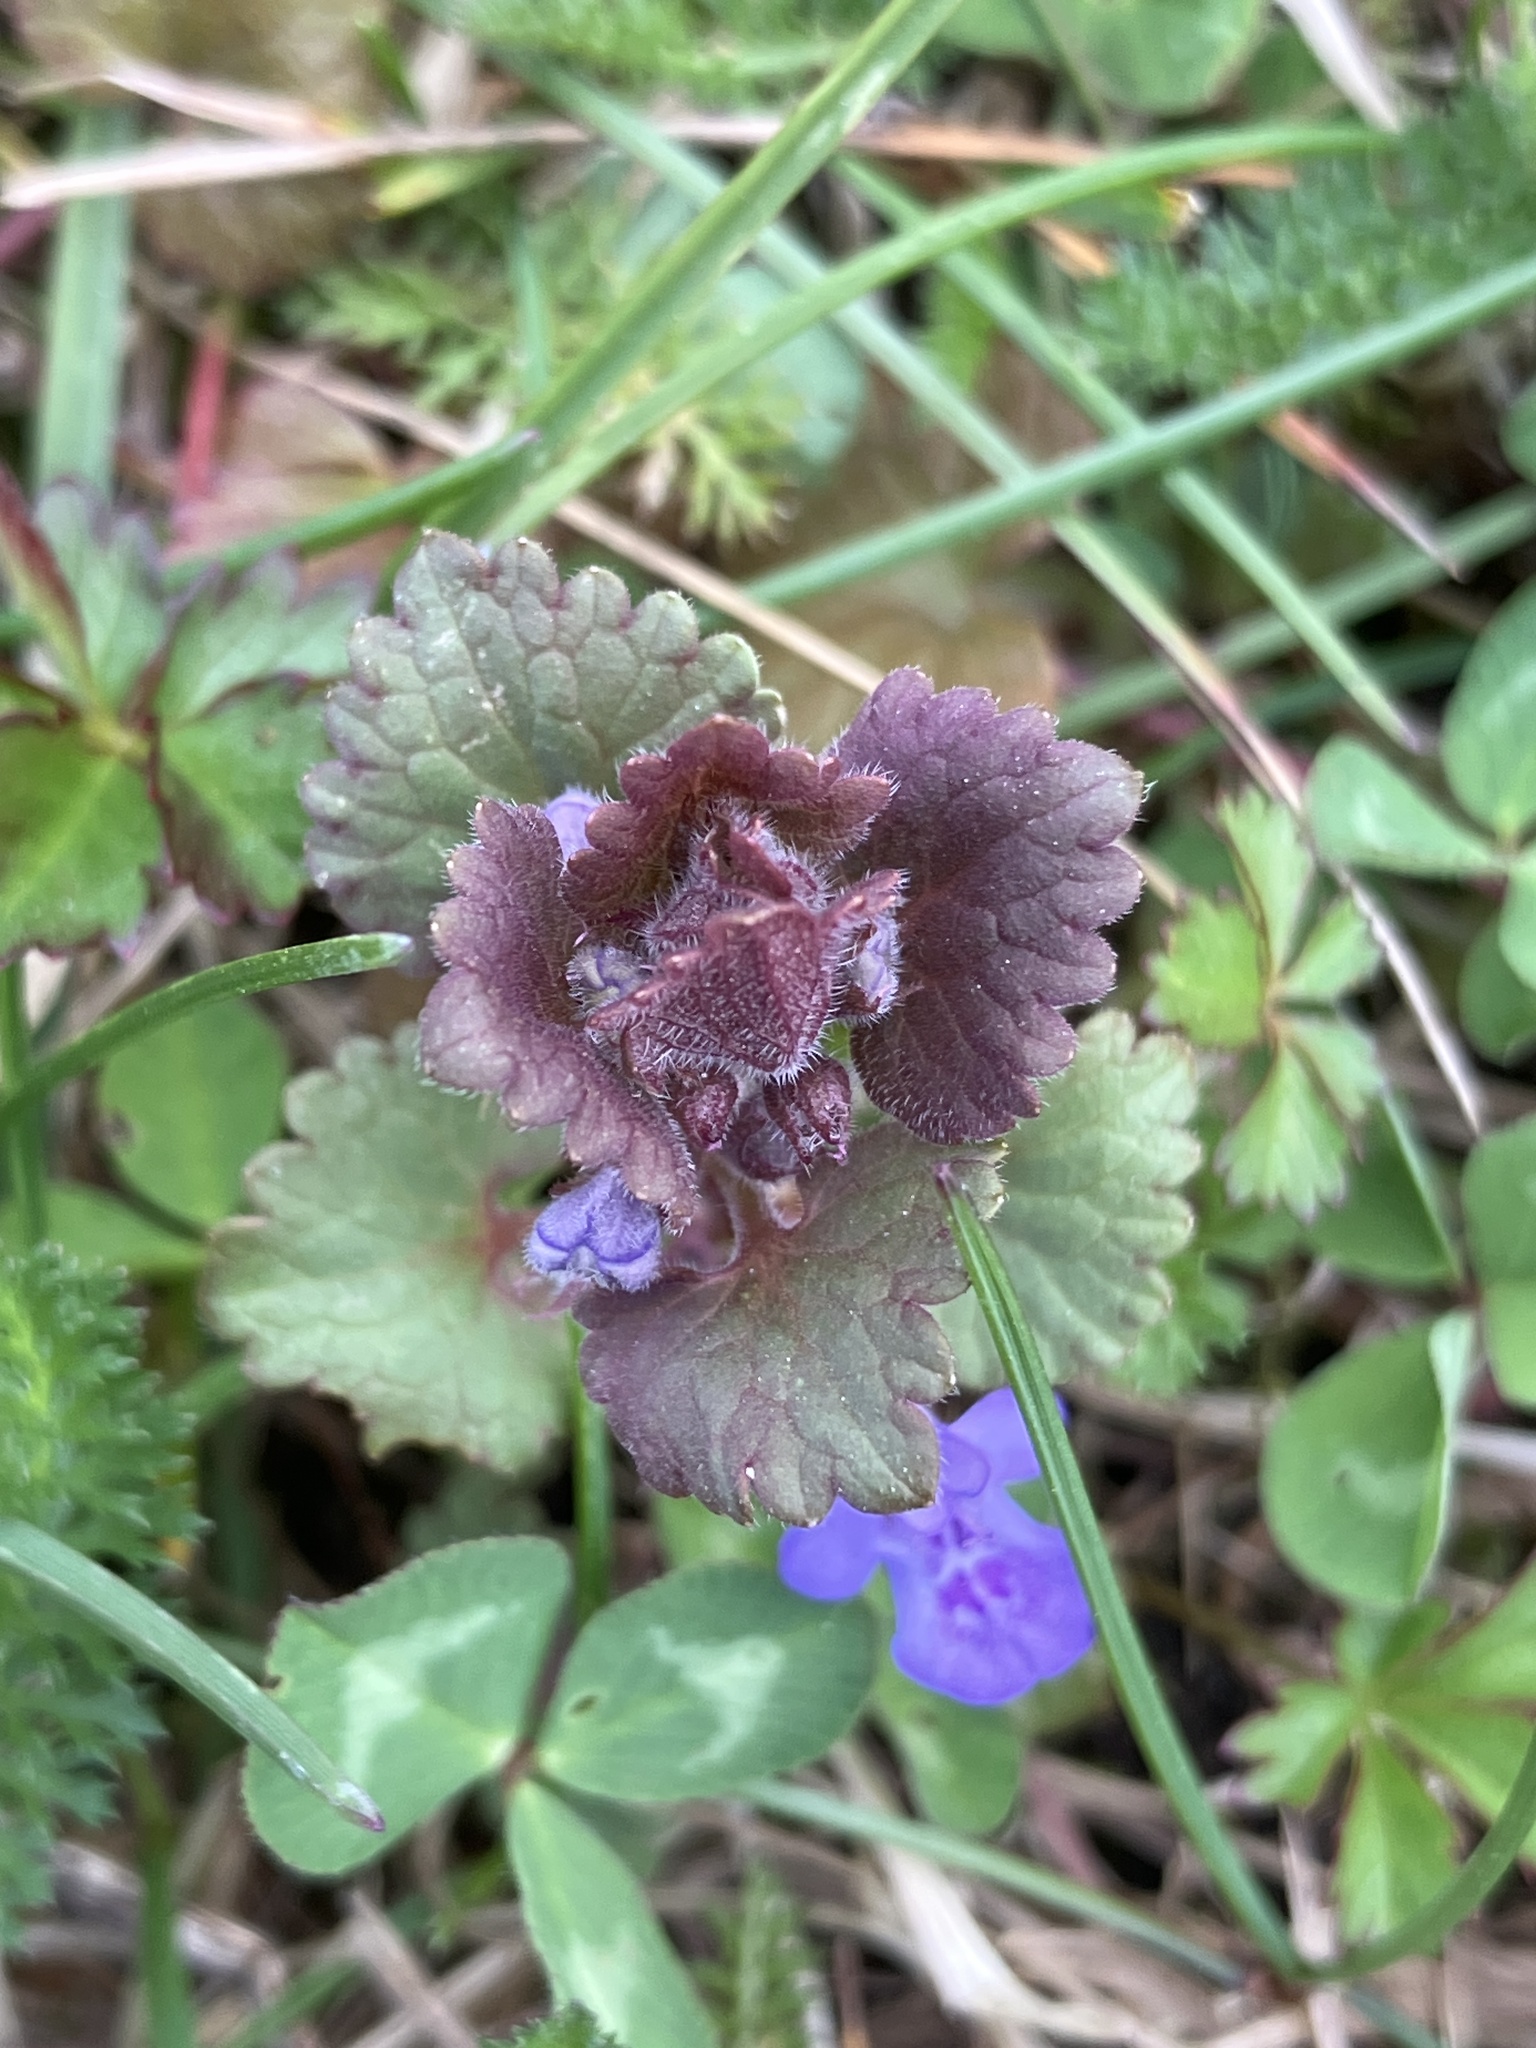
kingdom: Plantae
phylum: Tracheophyta
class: Magnoliopsida
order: Lamiales
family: Lamiaceae
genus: Glechoma
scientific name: Glechoma hederacea
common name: Ground ivy
